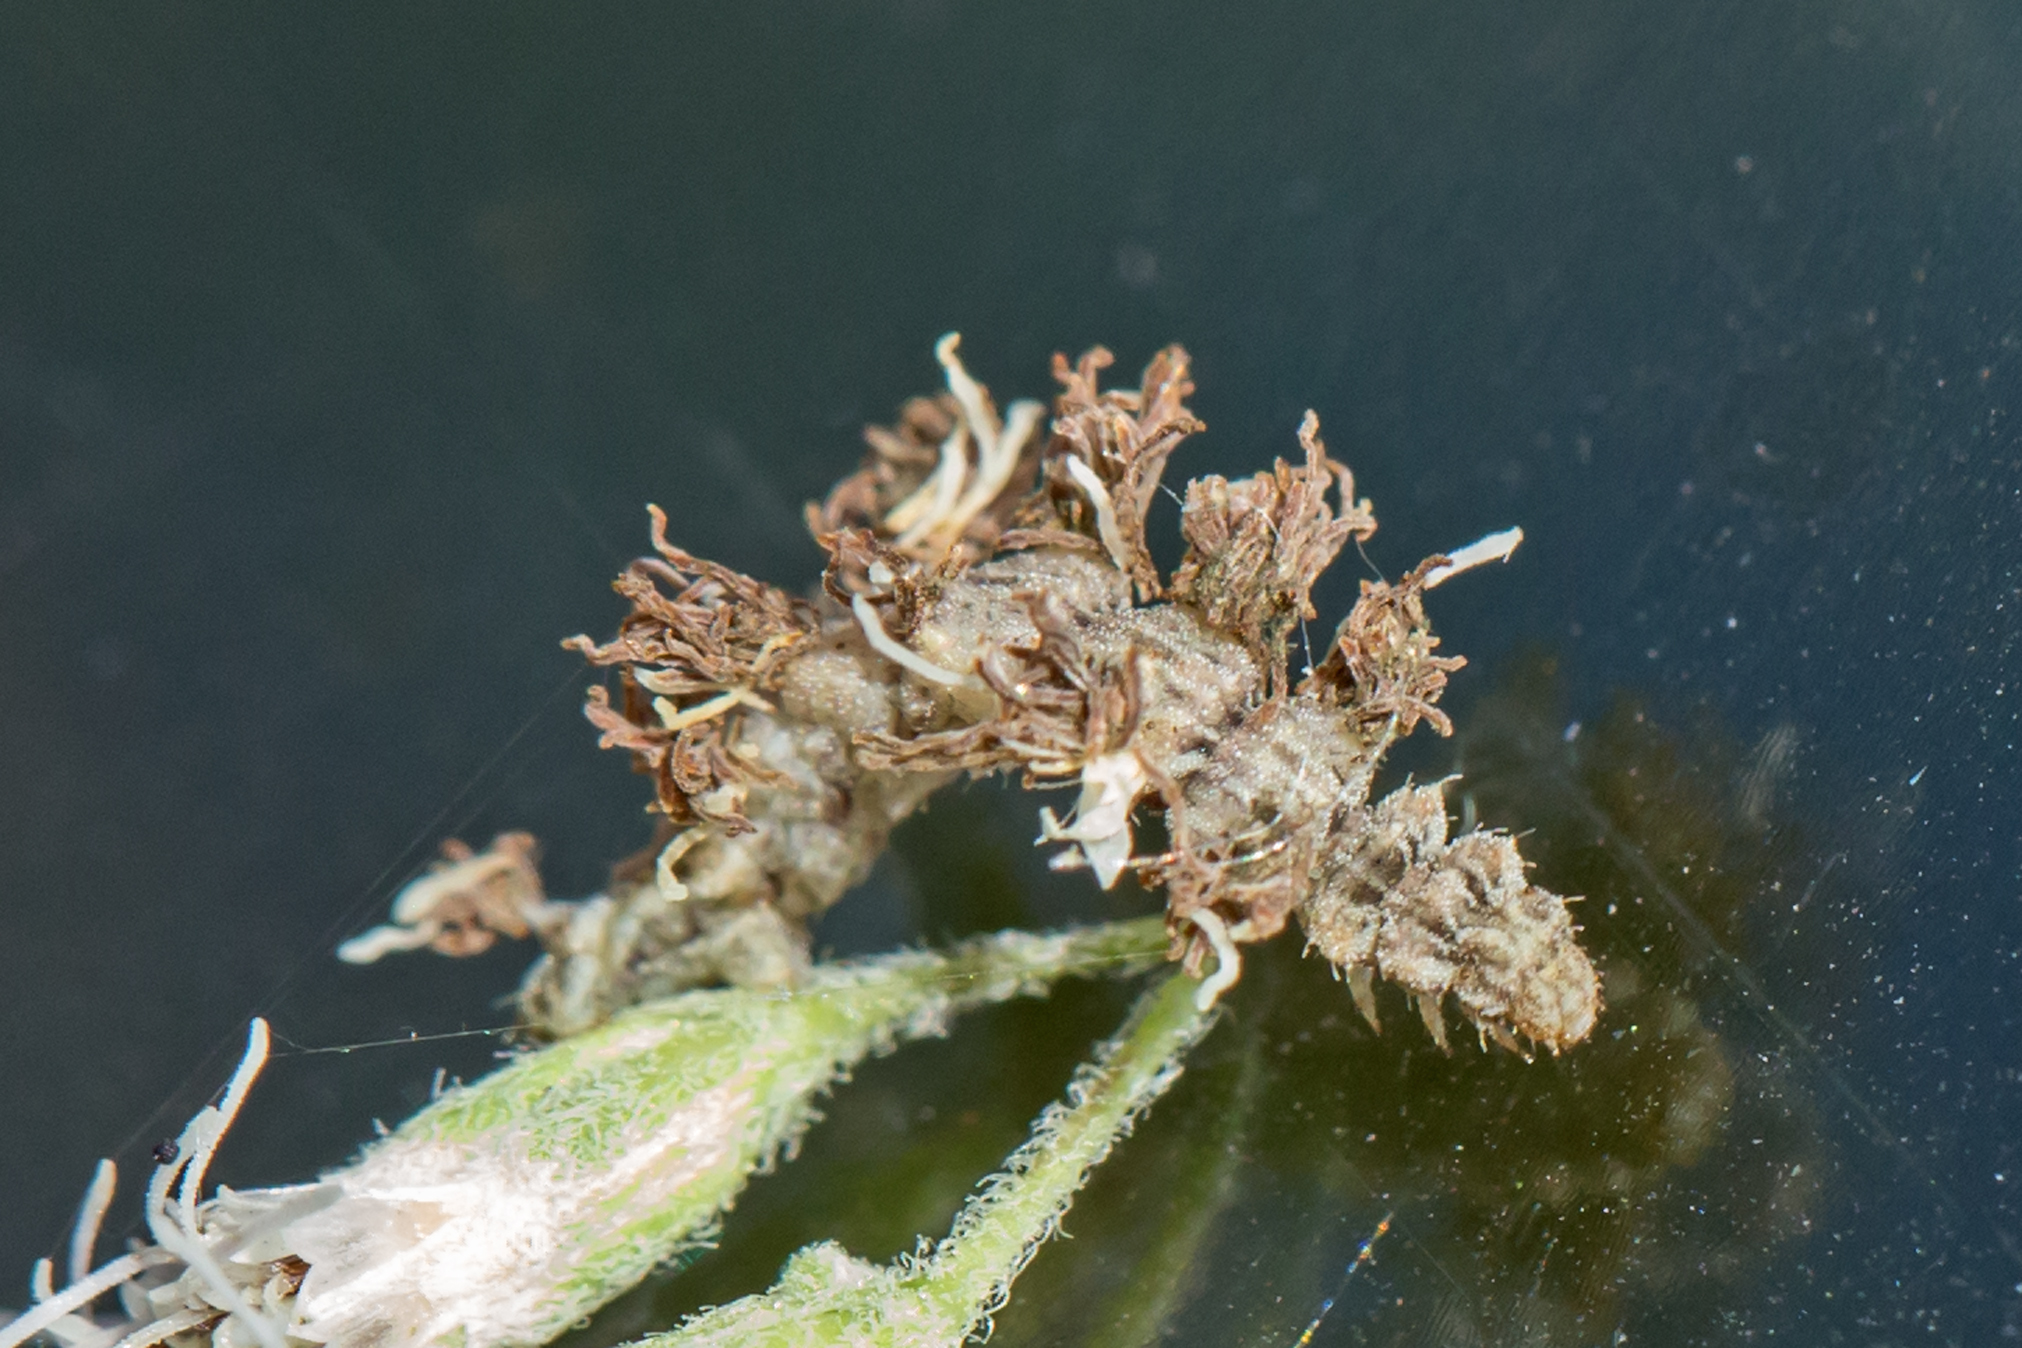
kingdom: Animalia
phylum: Arthropoda
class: Insecta
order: Lepidoptera
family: Geometridae
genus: Synchlora
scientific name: Synchlora aerata
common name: Wavy-lined emerald
